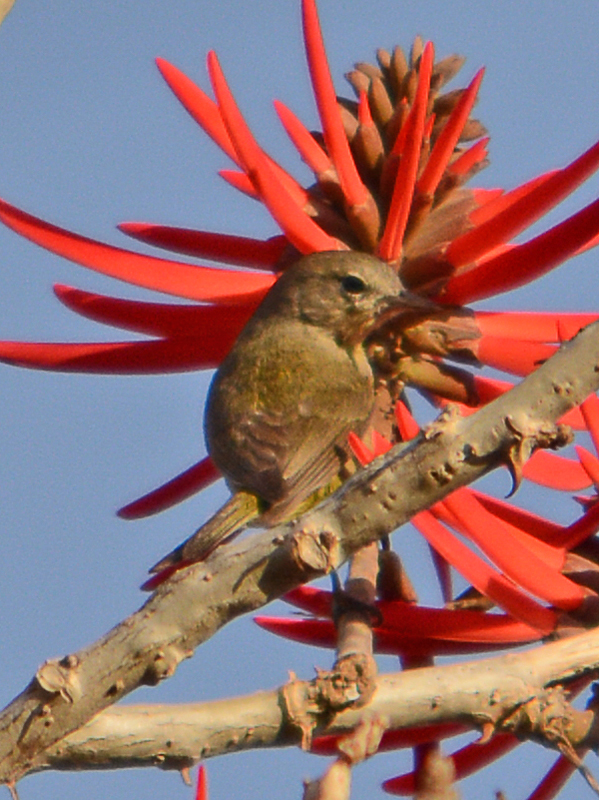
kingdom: Animalia
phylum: Chordata
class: Aves
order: Passeriformes
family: Parulidae
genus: Leiothlypis
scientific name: Leiothlypis celata
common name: Orange-crowned warbler
